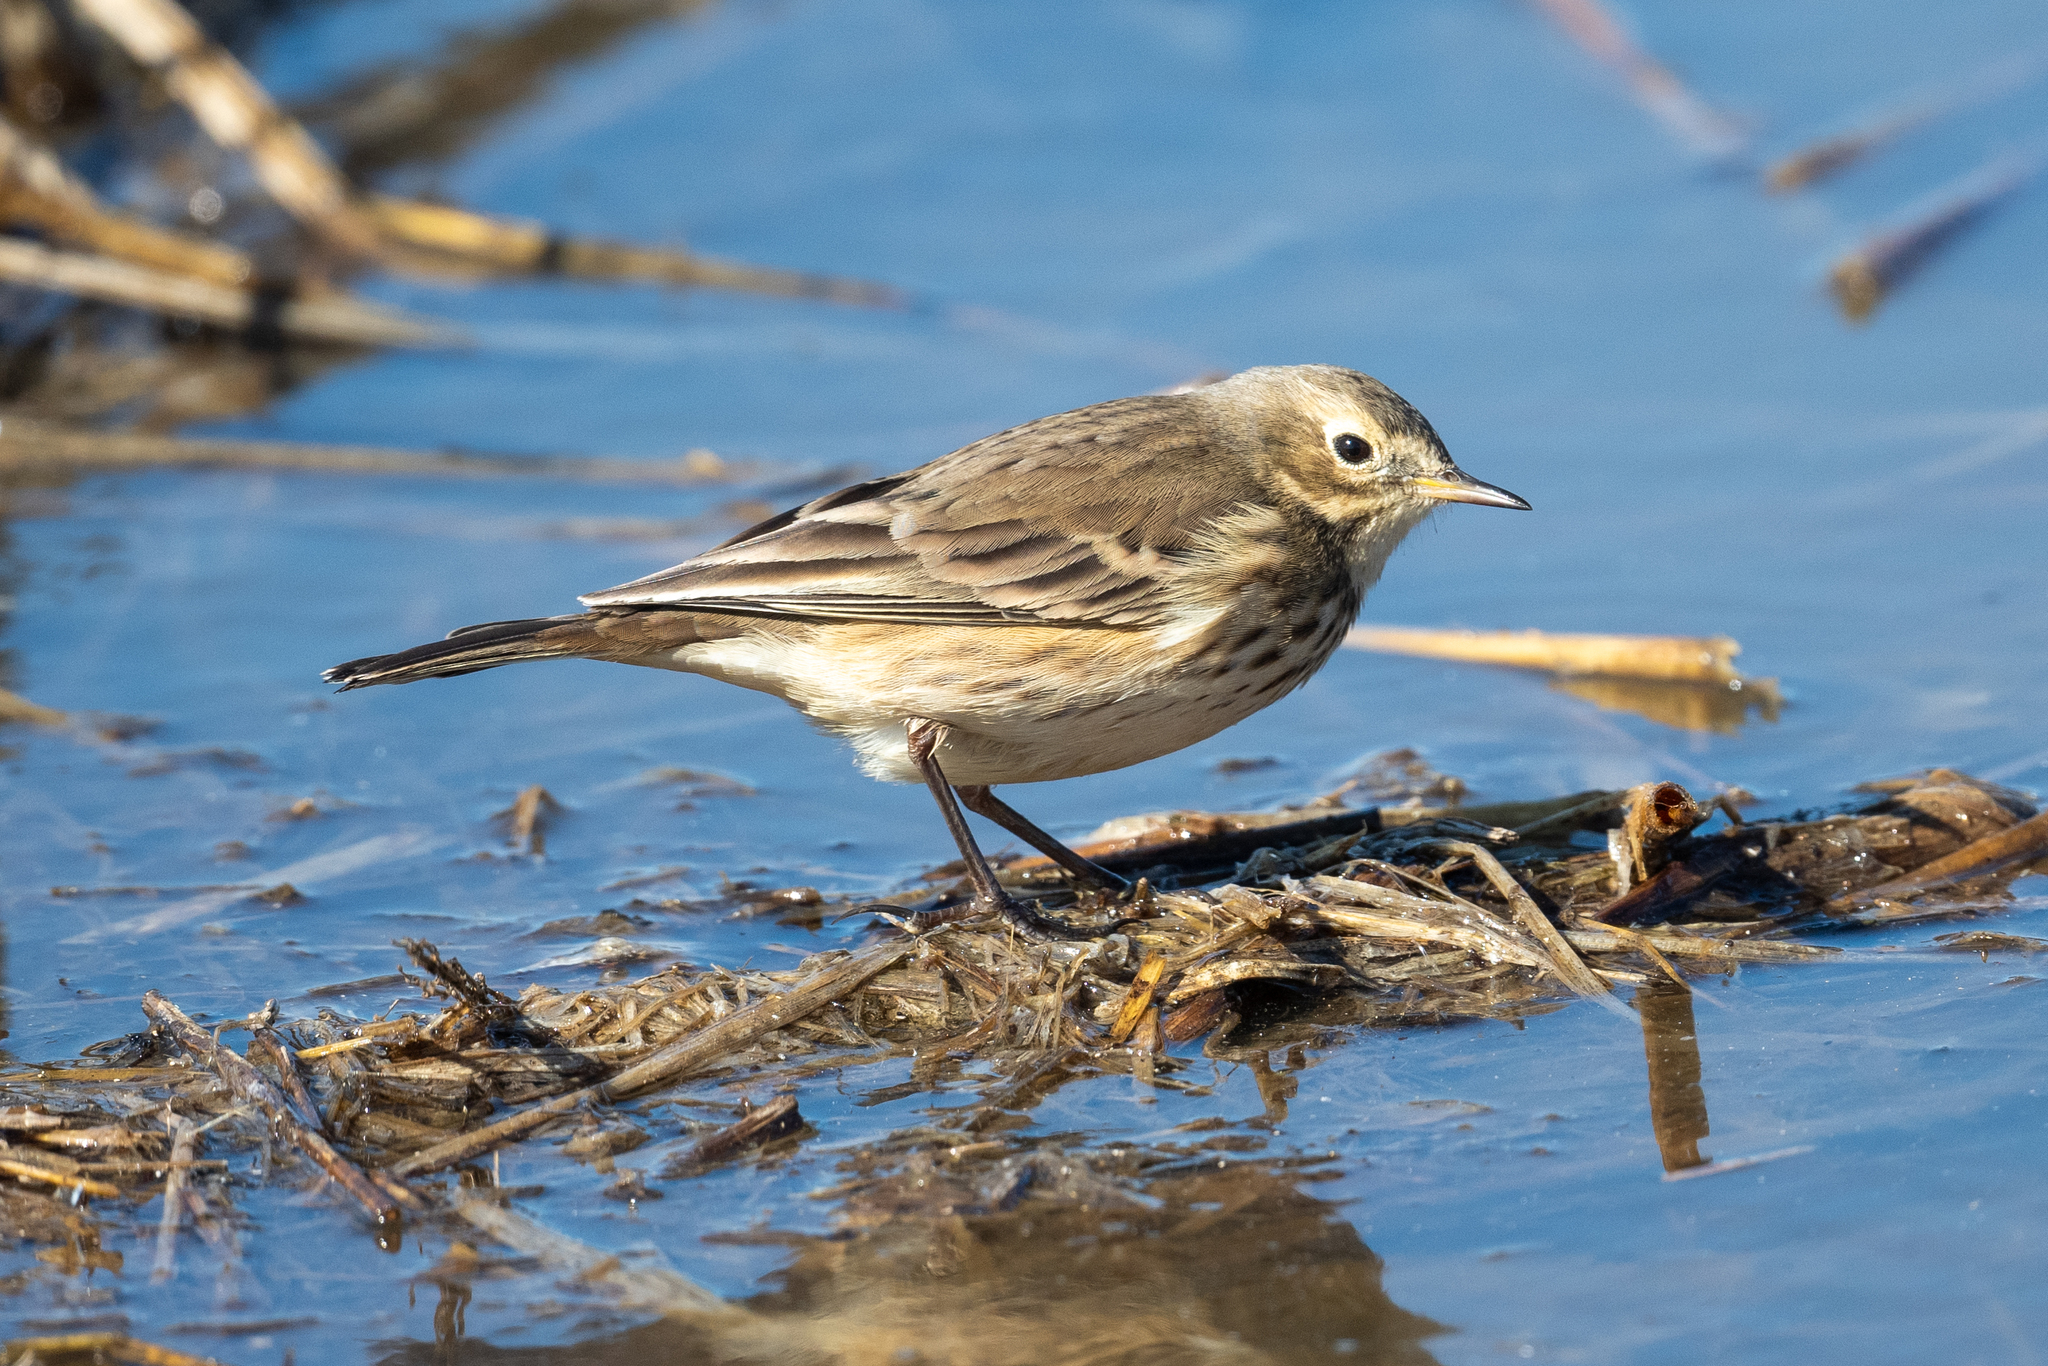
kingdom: Animalia
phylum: Chordata
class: Aves
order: Passeriformes
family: Motacillidae
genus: Anthus
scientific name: Anthus rubescens
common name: Buff-bellied pipit
